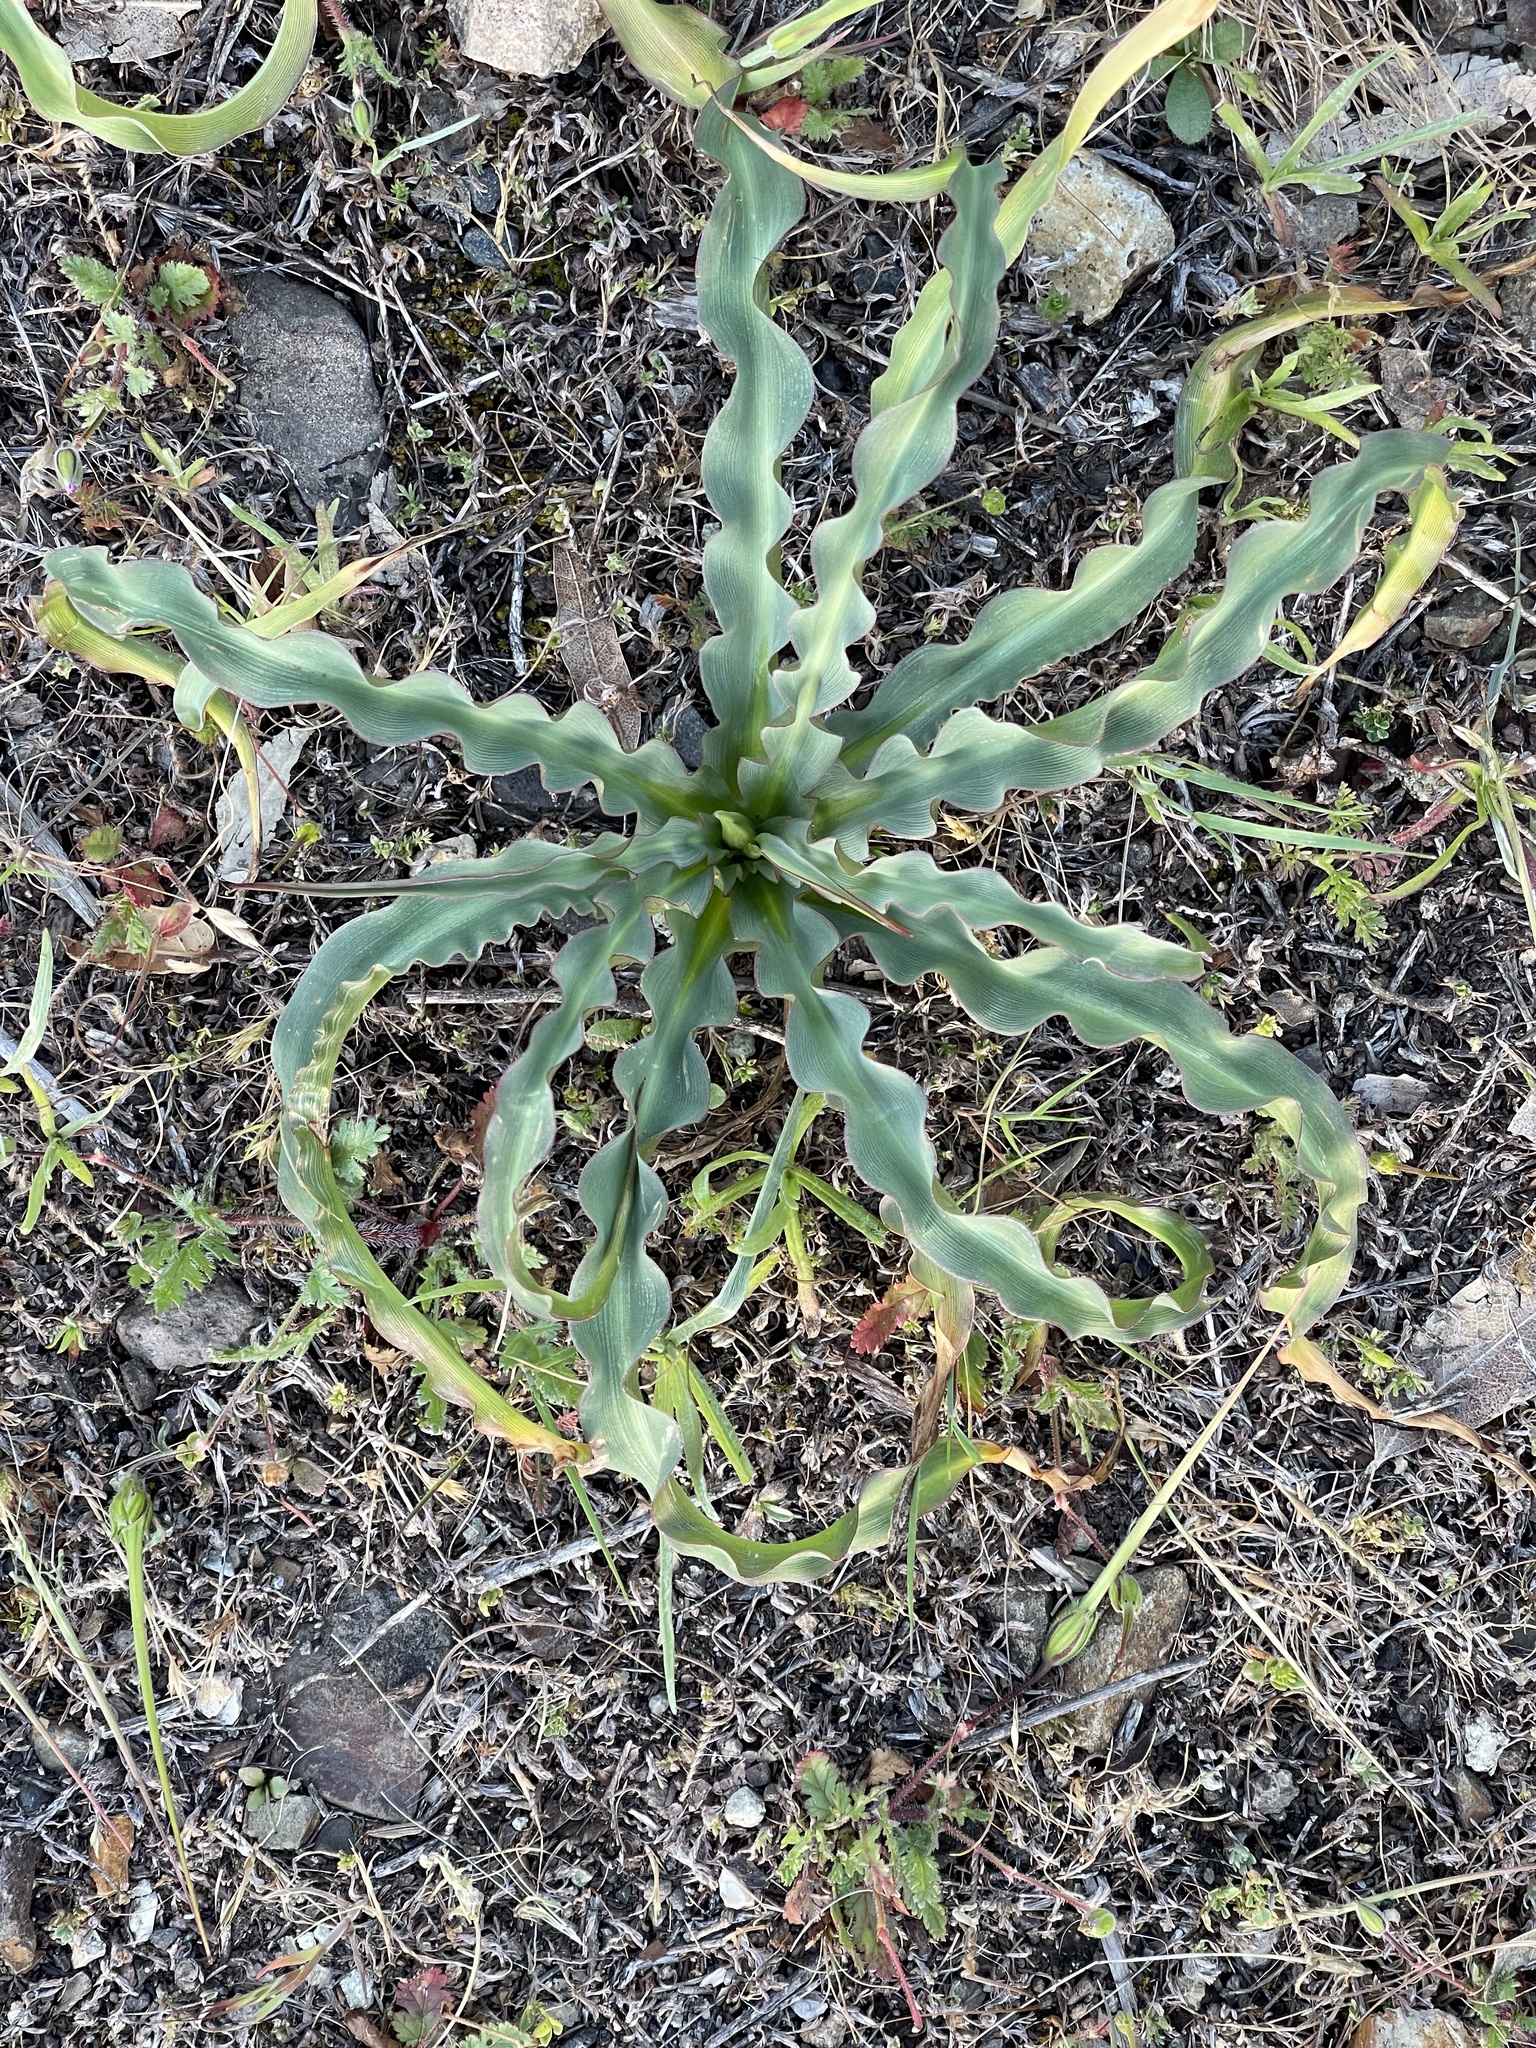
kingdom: Plantae
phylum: Tracheophyta
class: Liliopsida
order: Asparagales
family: Asparagaceae
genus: Chlorogalum
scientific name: Chlorogalum pomeridianum
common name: Amole
